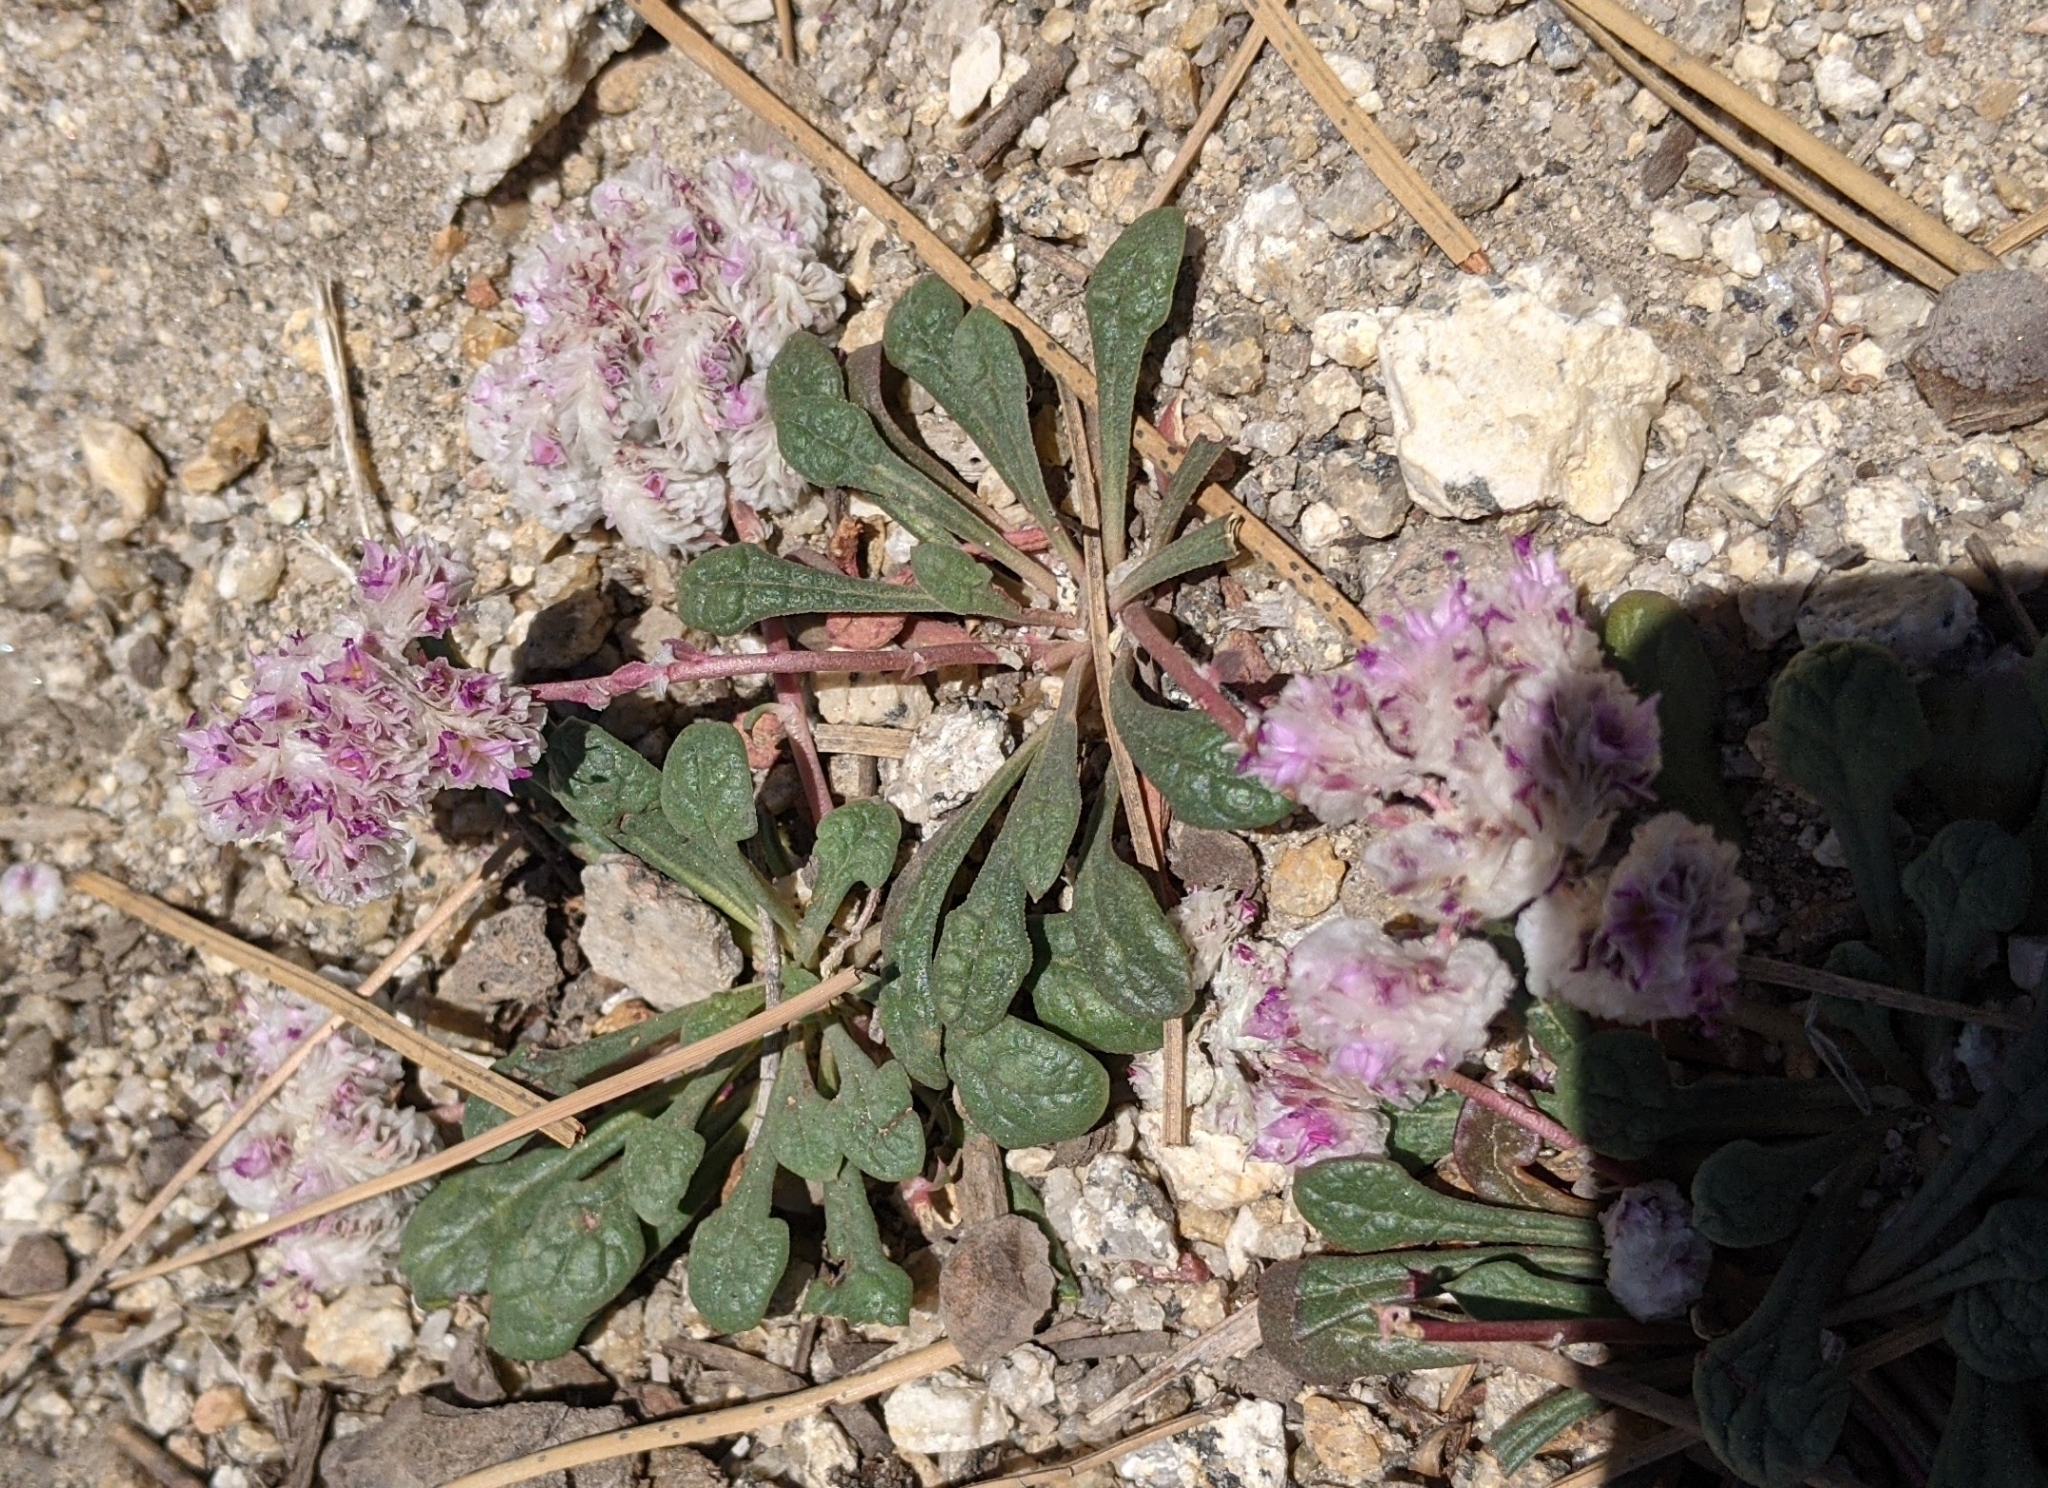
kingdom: Plantae
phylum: Tracheophyta
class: Magnoliopsida
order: Caryophyllales
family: Montiaceae
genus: Calyptridium
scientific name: Calyptridium monospermum
